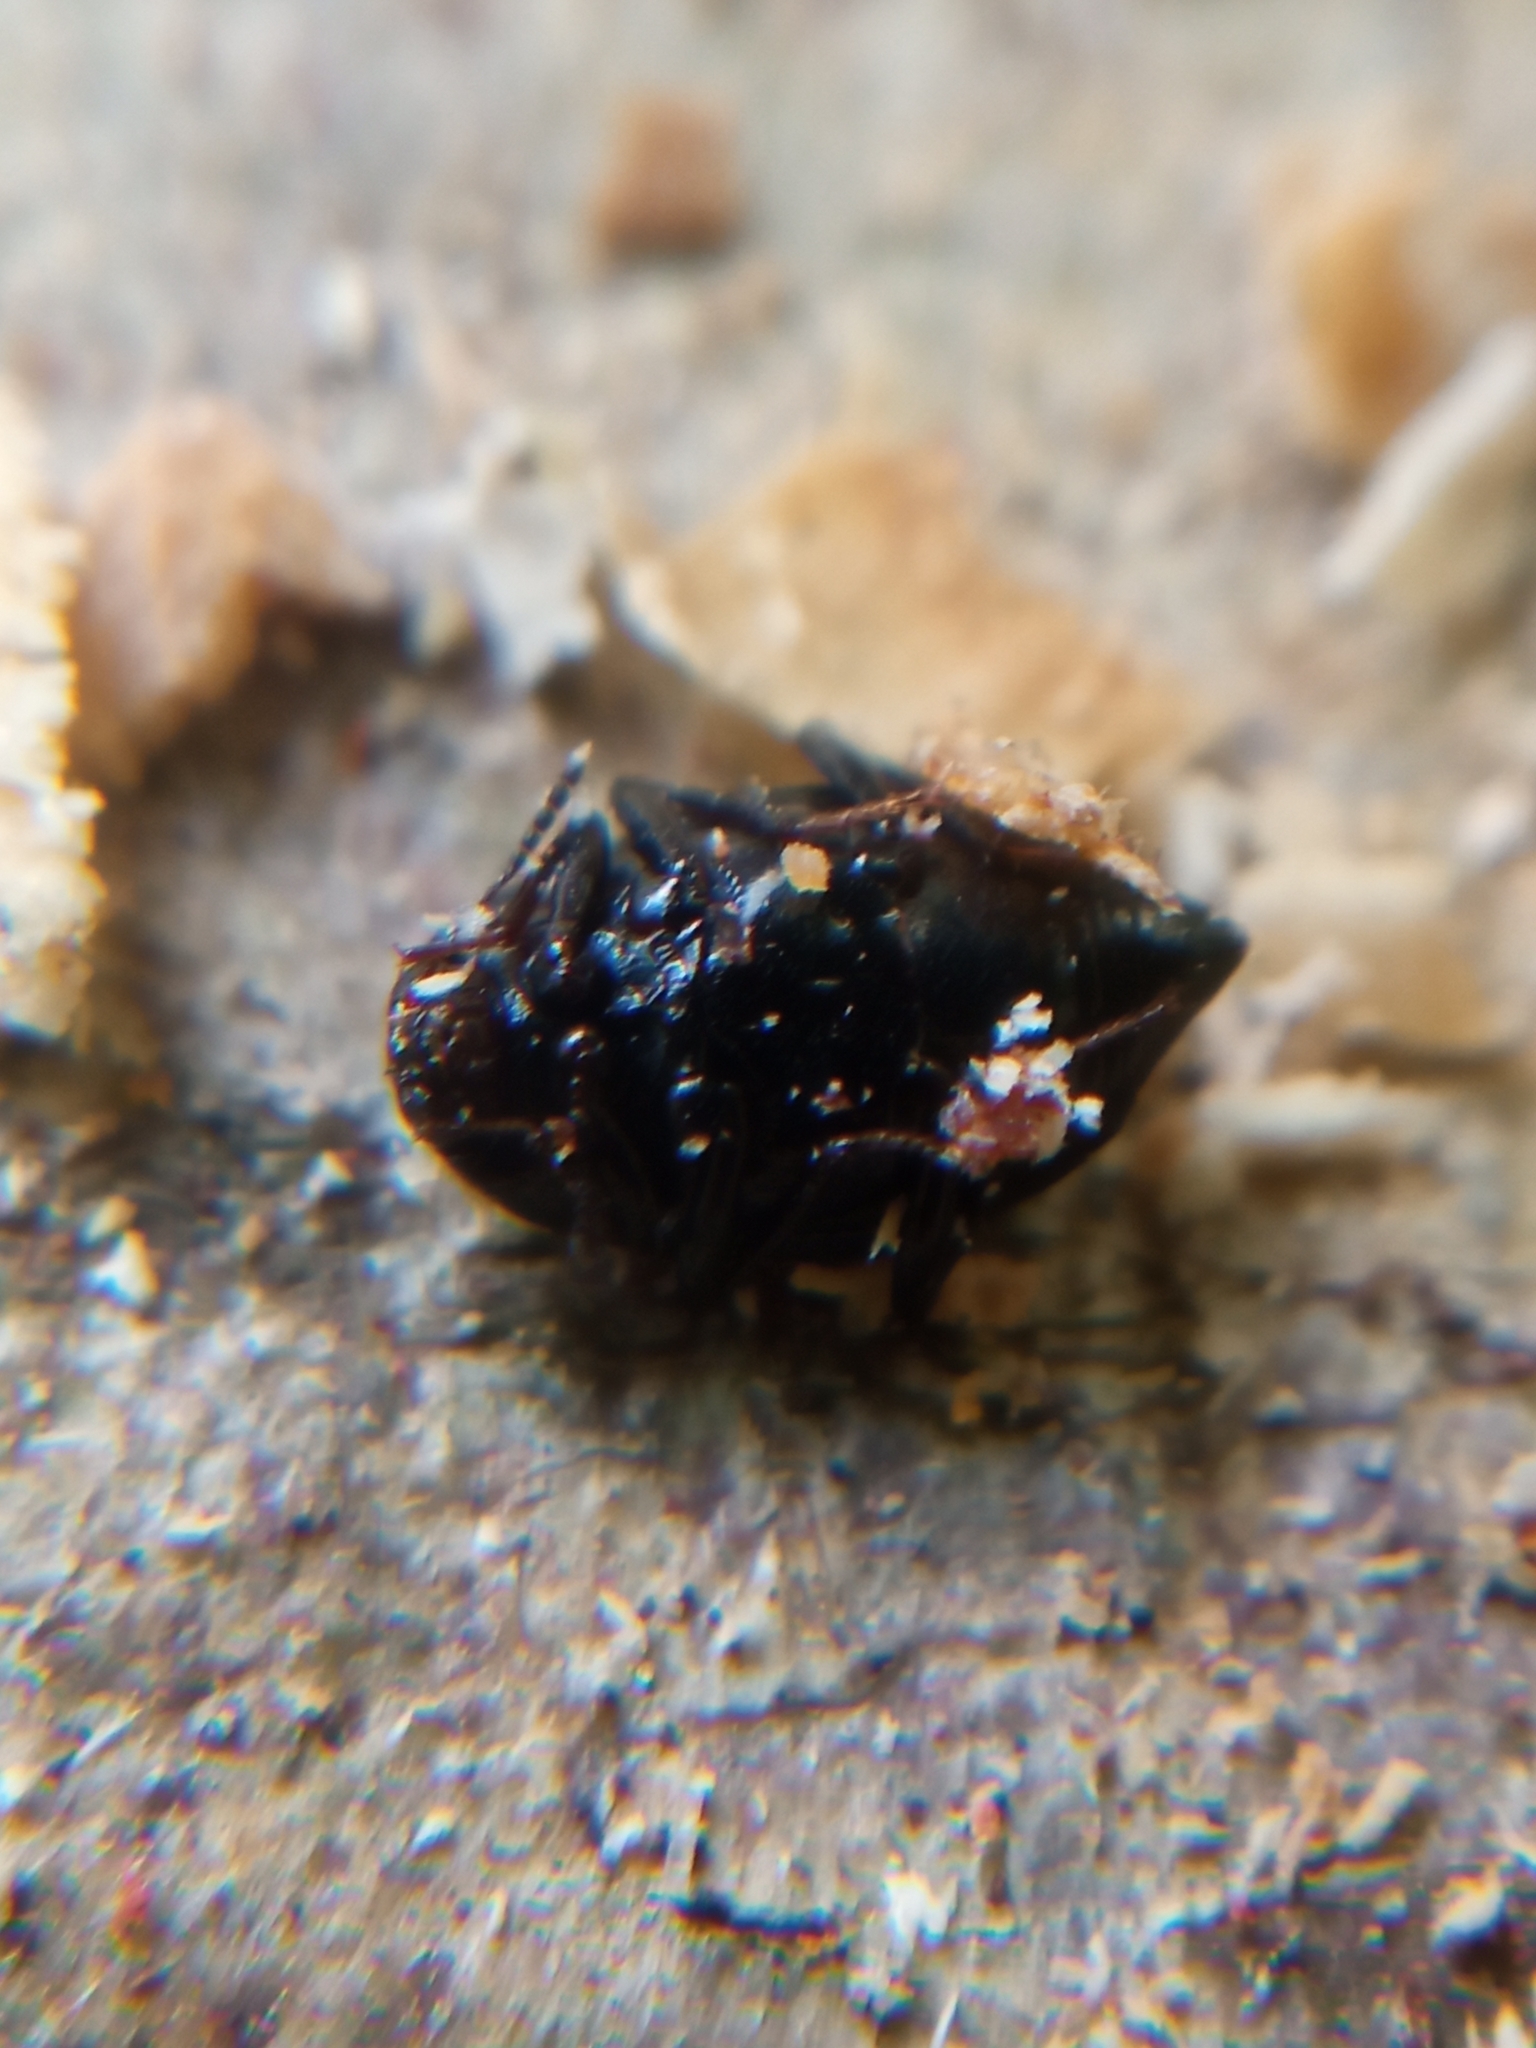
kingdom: Animalia
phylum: Arthropoda
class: Insecta
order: Coleoptera
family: Staphylinidae
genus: Scaphidium
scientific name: Scaphidium quadrimaculatum
